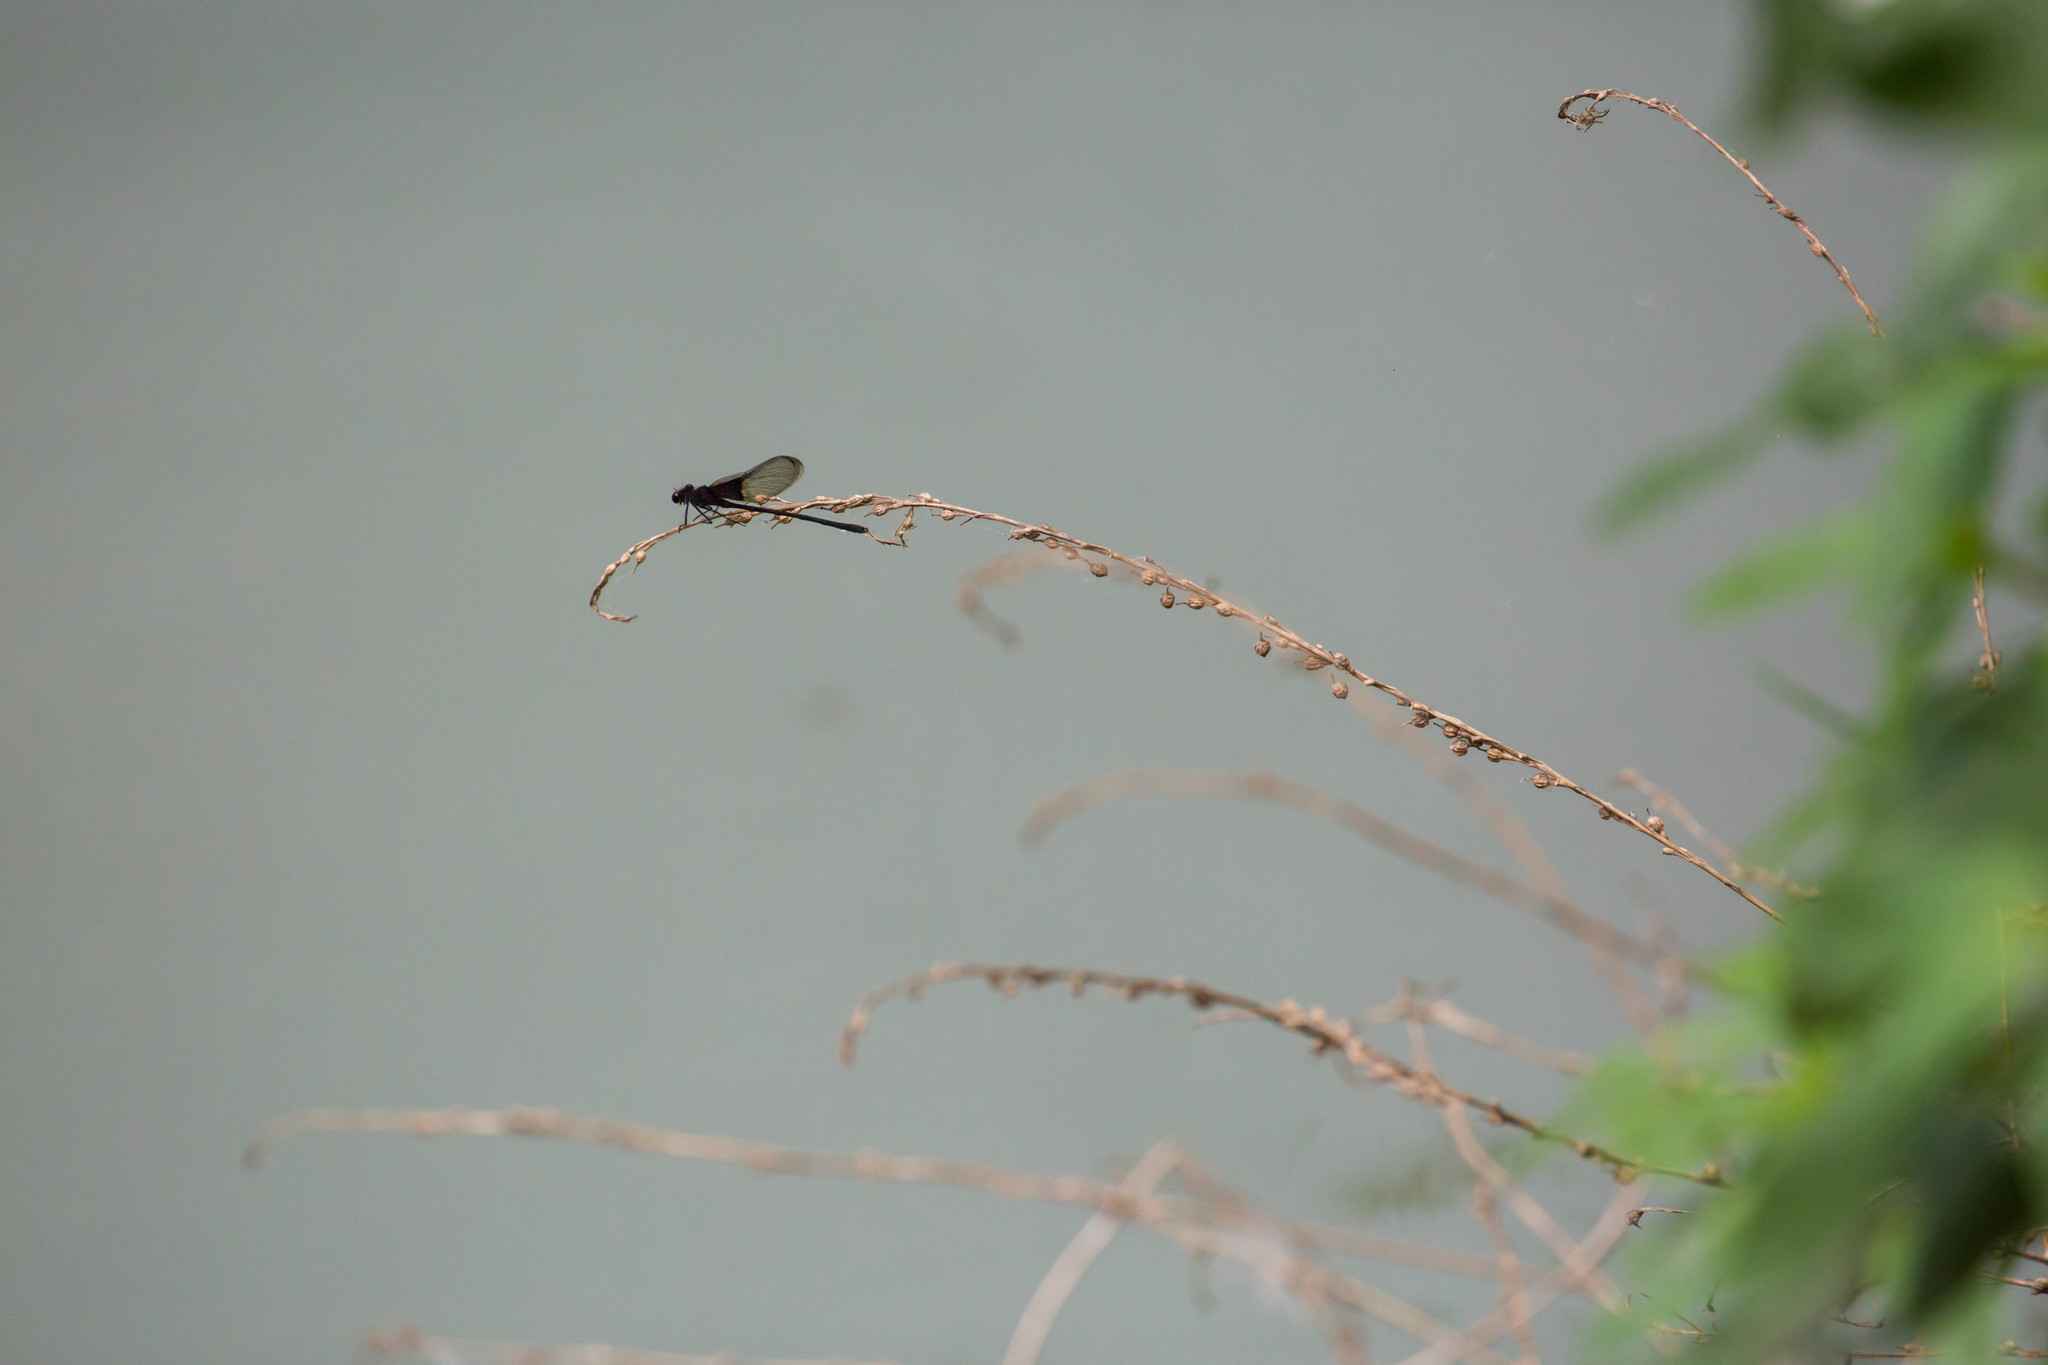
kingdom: Animalia
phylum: Arthropoda
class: Insecta
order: Odonata
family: Calopterygidae
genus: Hetaerina
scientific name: Hetaerina titia
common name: Smoky rubyspot
